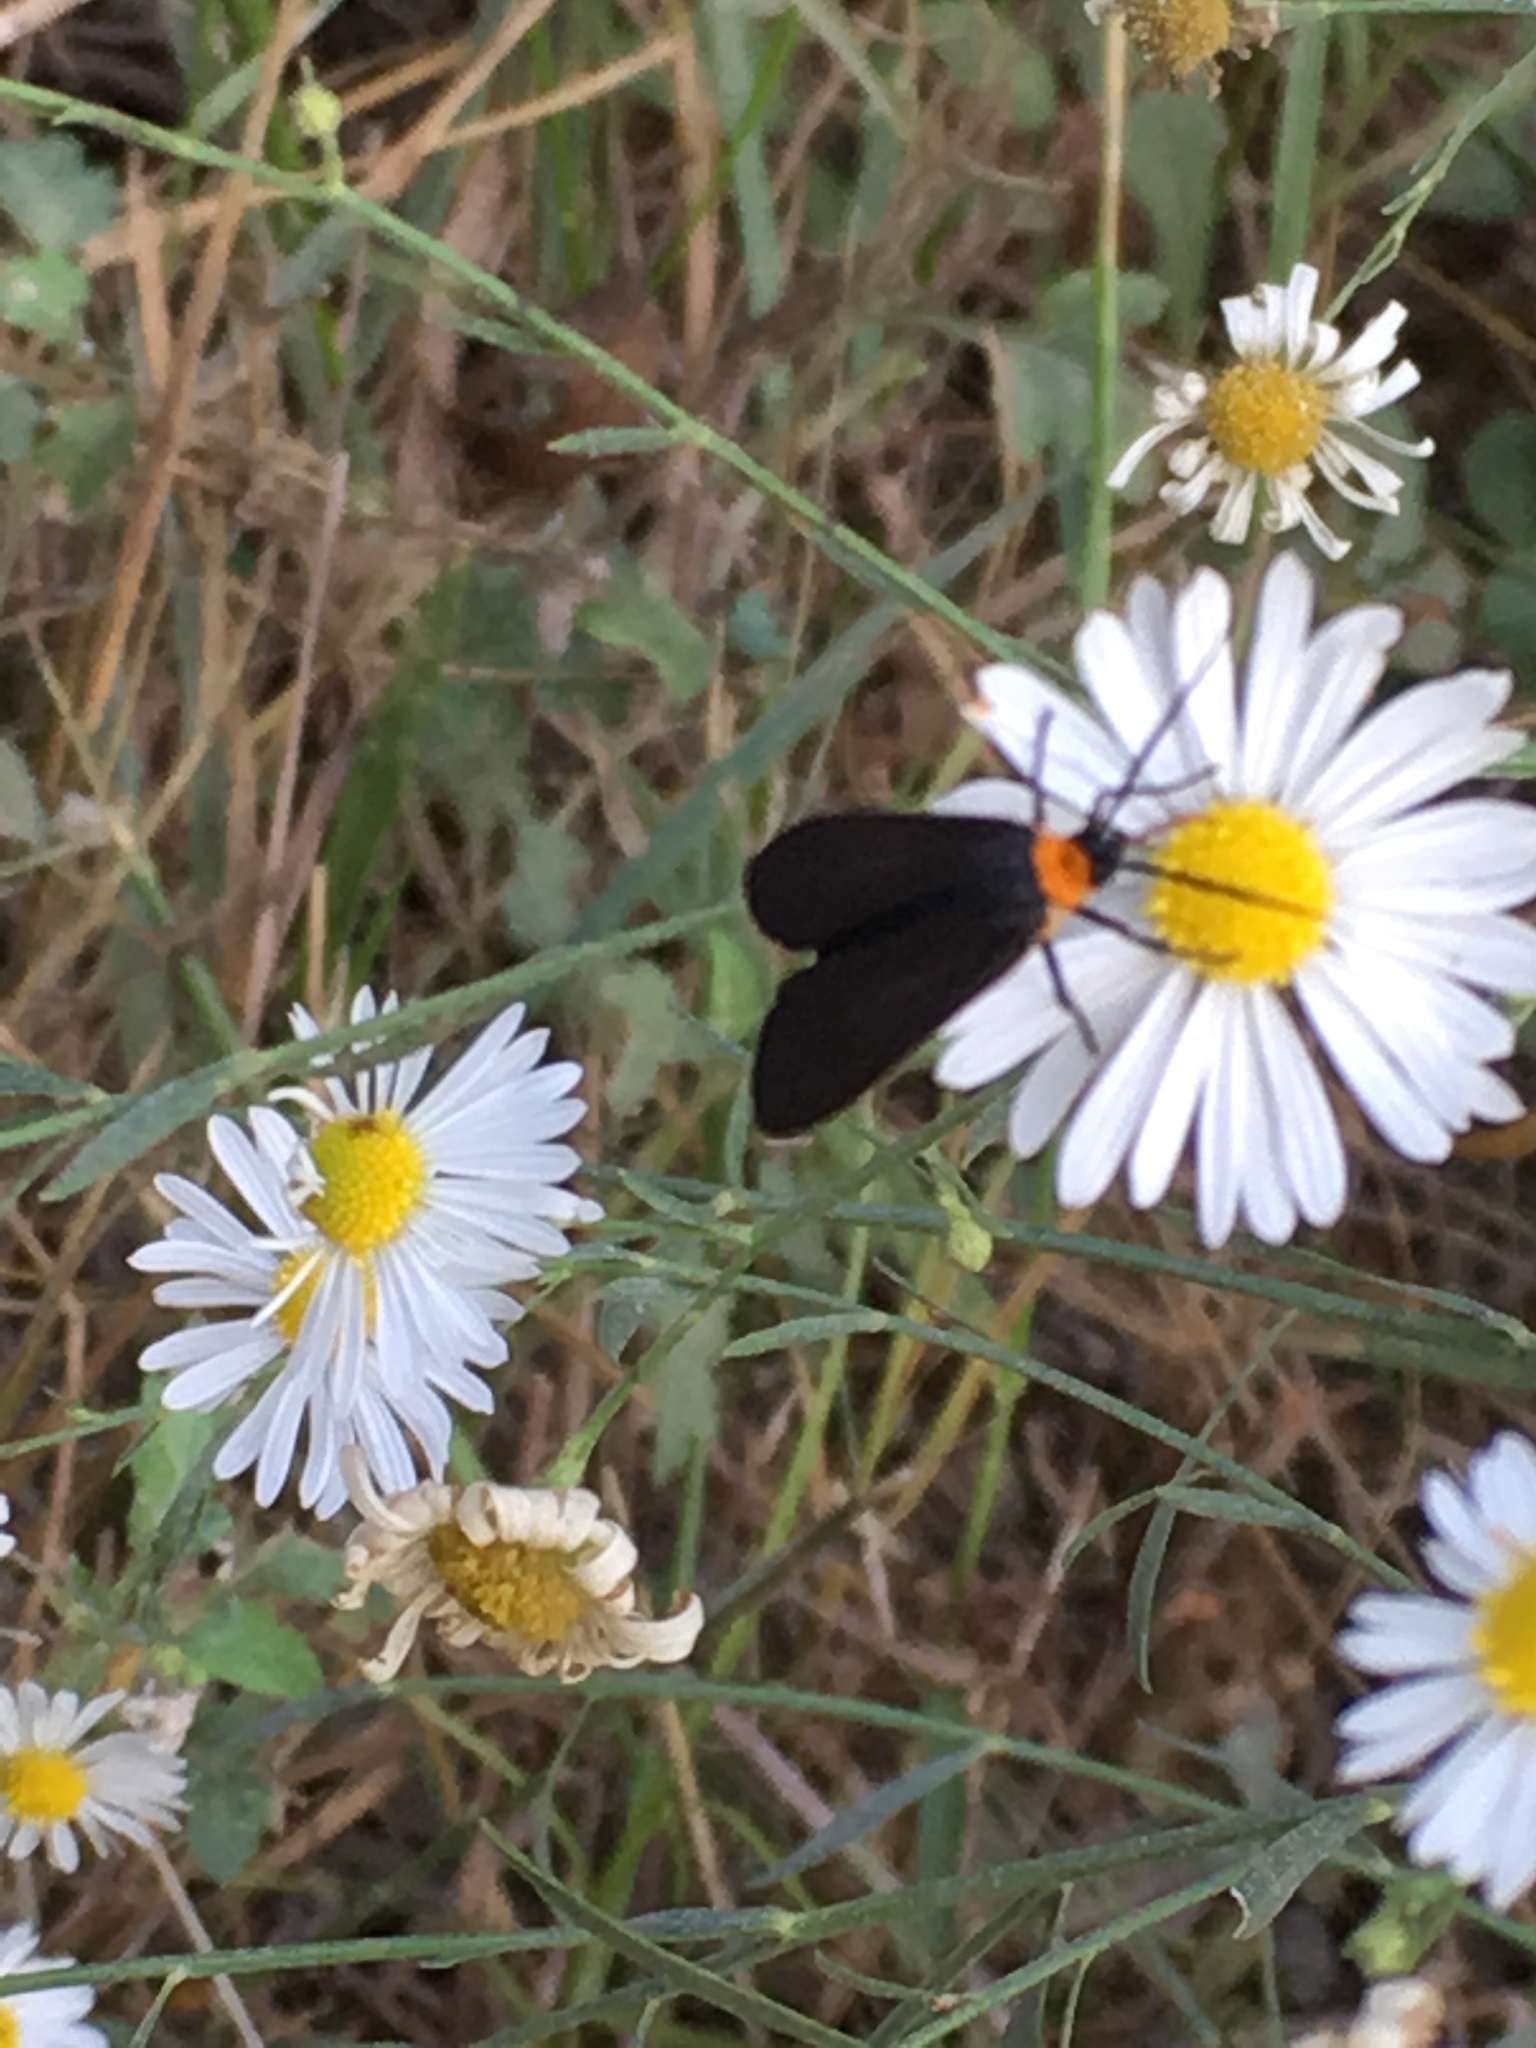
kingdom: Animalia
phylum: Arthropoda
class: Insecta
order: Lepidoptera
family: Erebidae
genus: Cisseps
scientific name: Cisseps fulvicollis
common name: Yellow-collared scape moth
